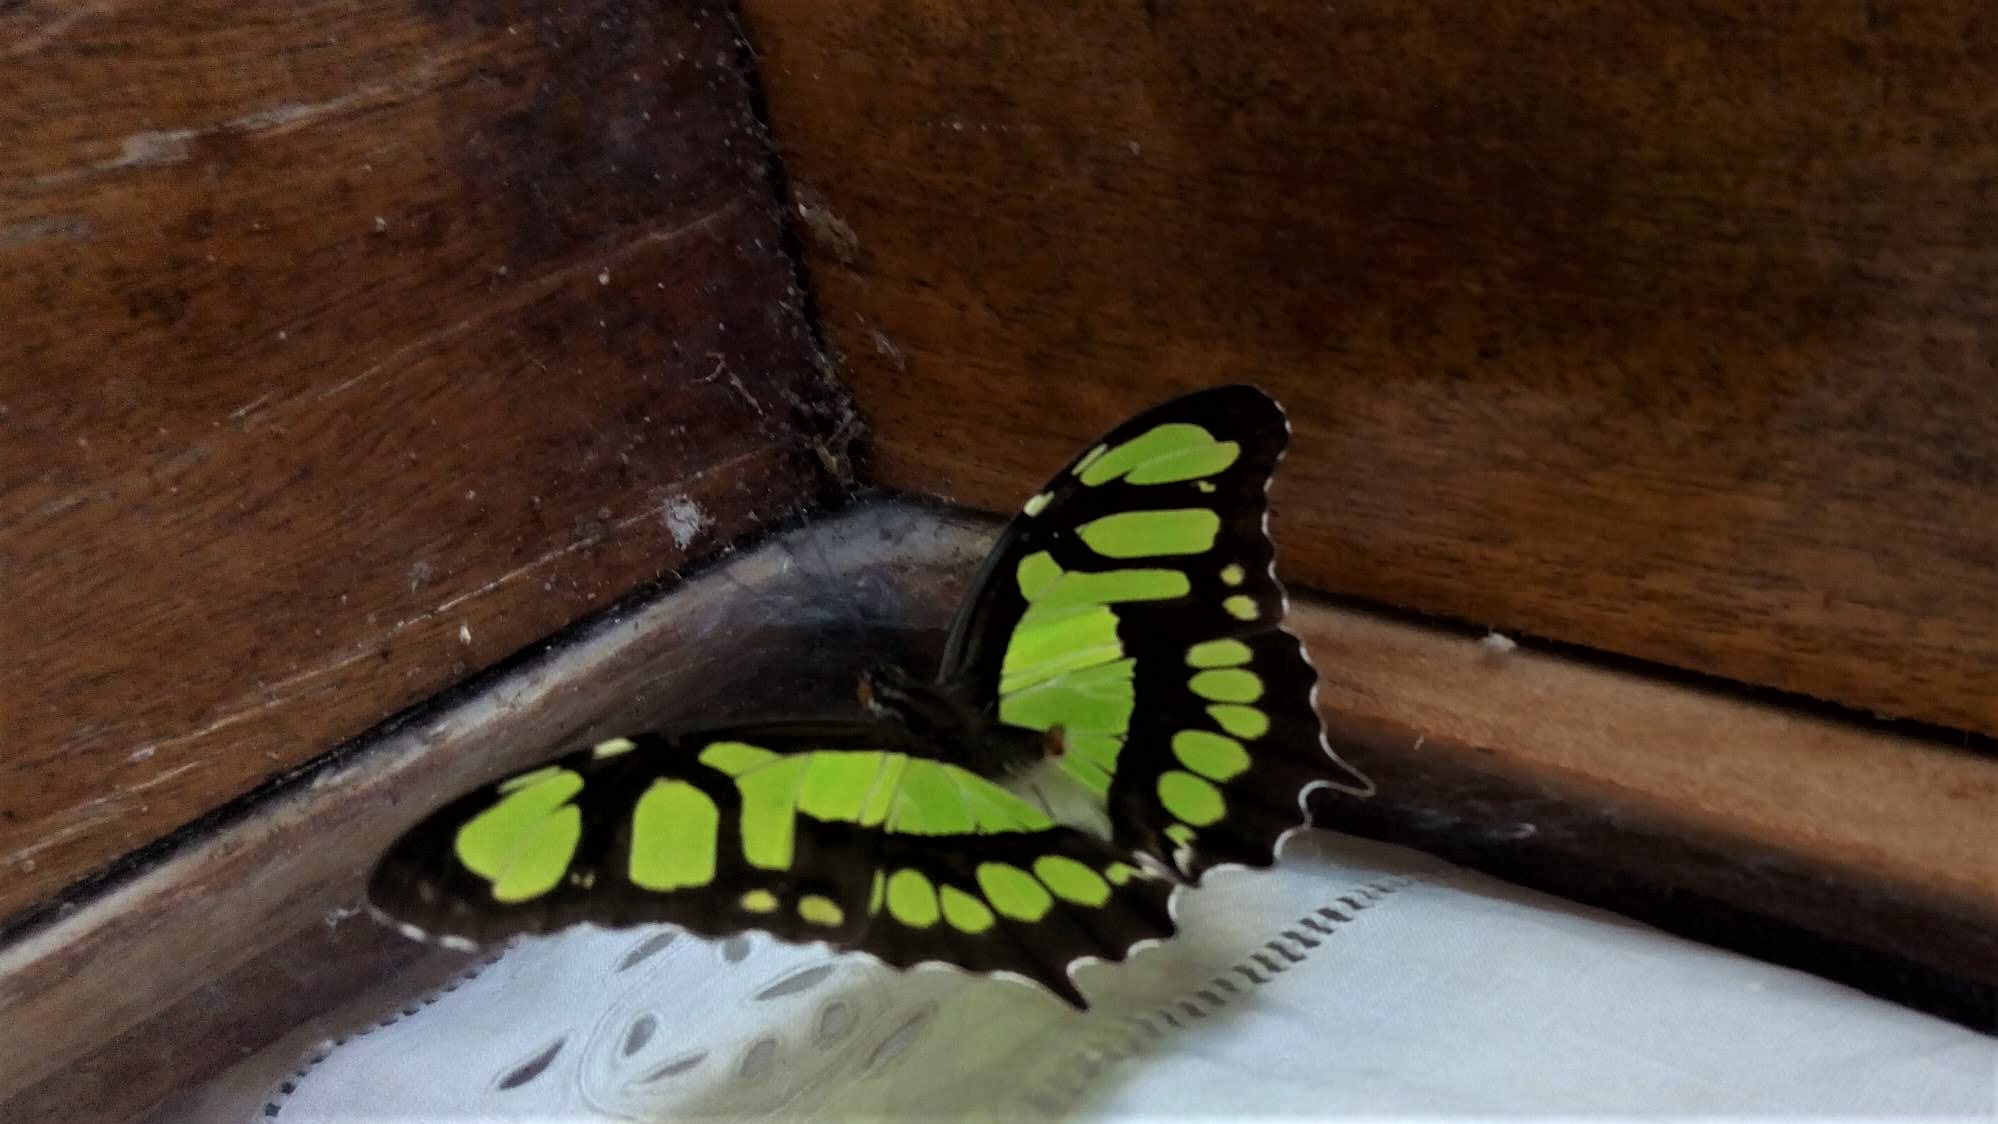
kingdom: Animalia
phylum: Arthropoda
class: Insecta
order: Lepidoptera
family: Nymphalidae
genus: Siproeta
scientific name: Siproeta stelenes
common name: Malachite
